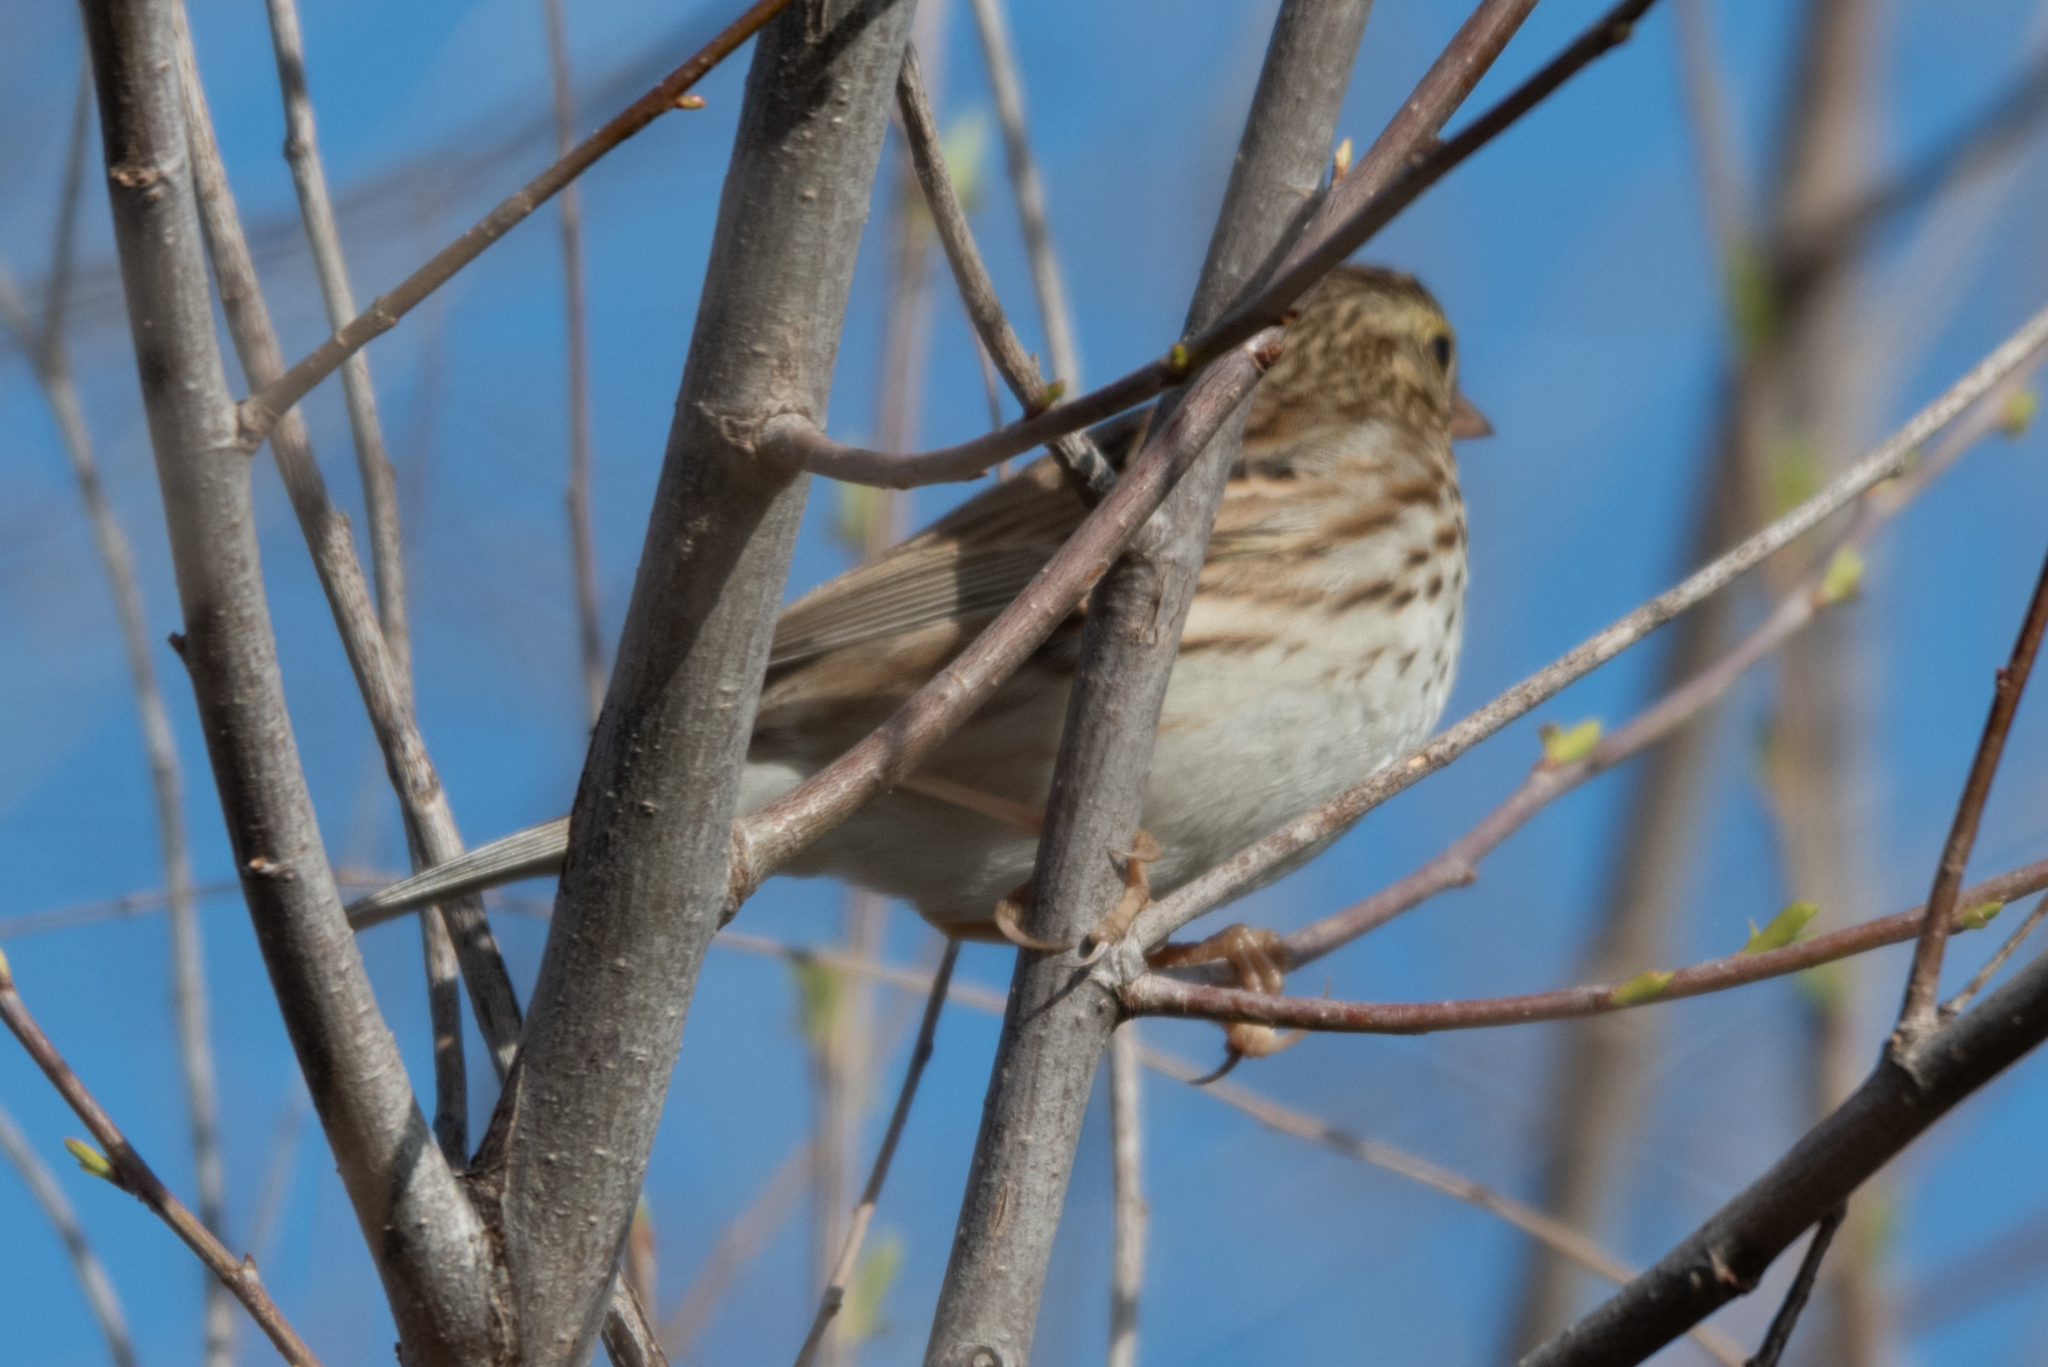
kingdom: Animalia
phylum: Chordata
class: Aves
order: Passeriformes
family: Passerellidae
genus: Passerculus
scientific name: Passerculus sandwichensis
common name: Savannah sparrow
